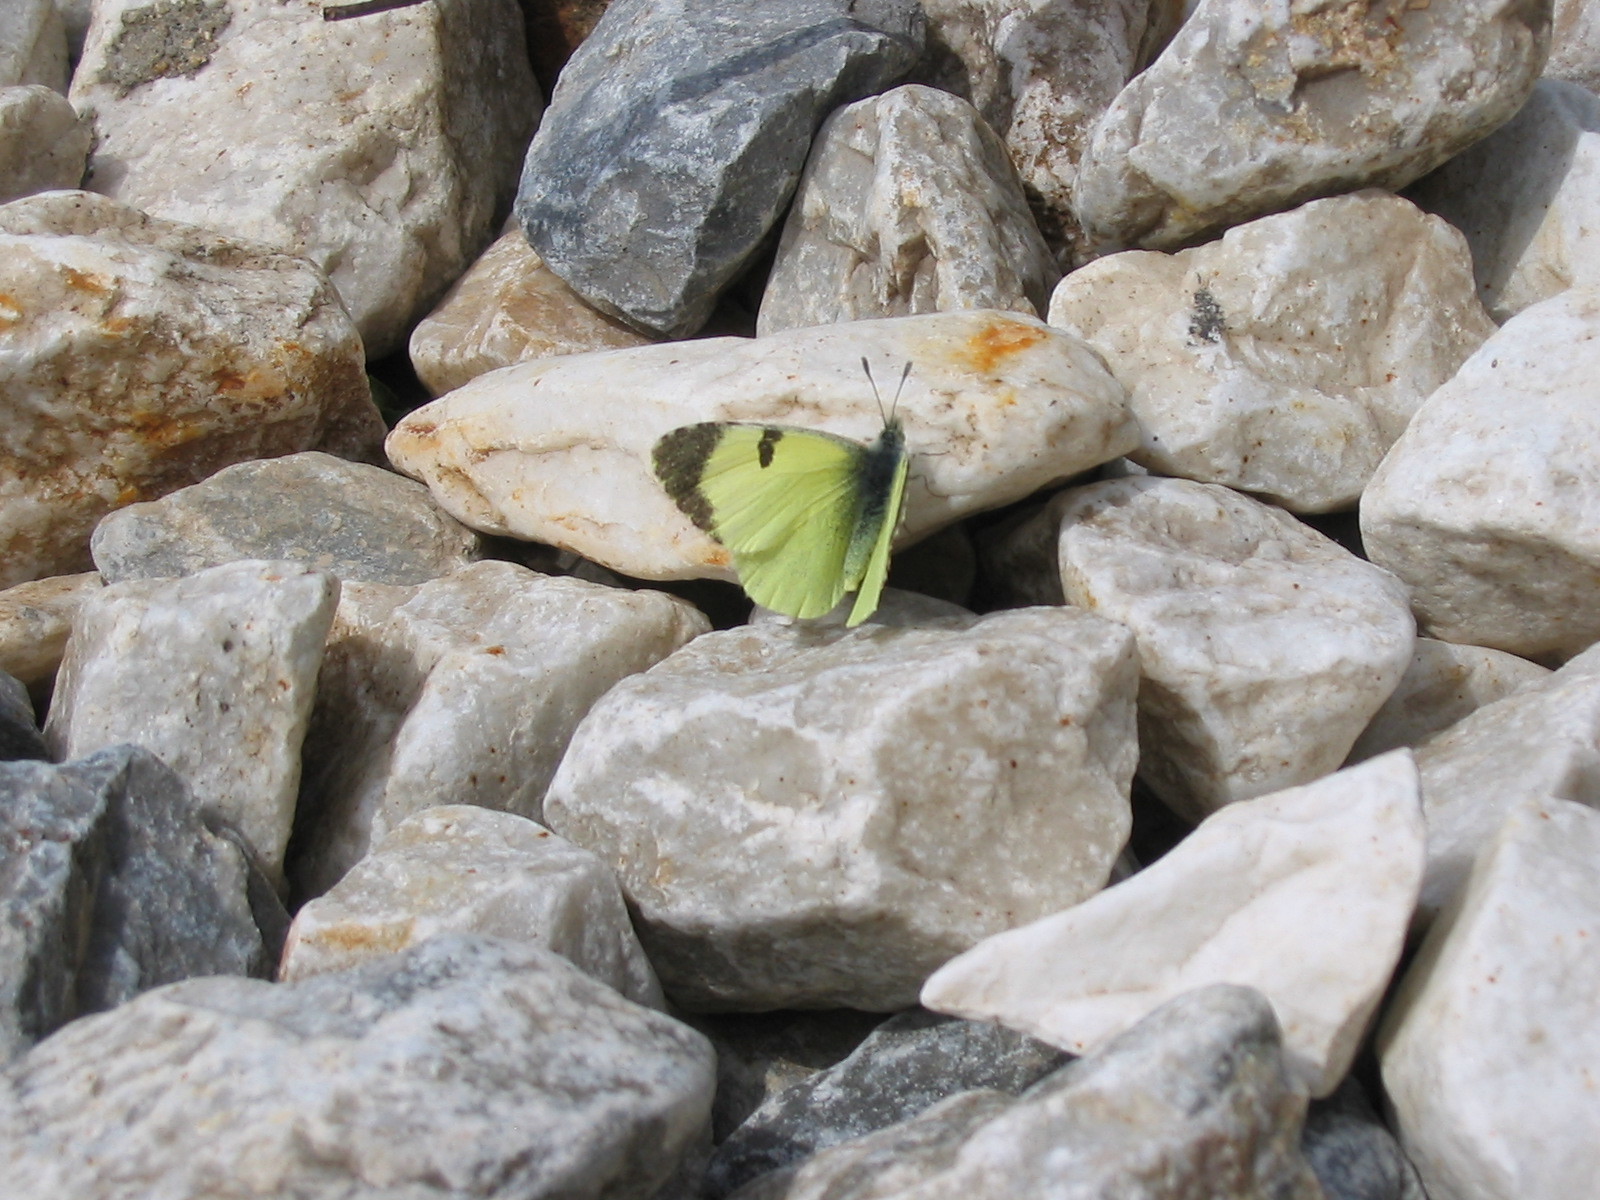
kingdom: Animalia
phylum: Arthropoda
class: Insecta
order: Lepidoptera
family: Pieridae
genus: Elphinstonia
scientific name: Elphinstonia penia
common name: Eastern greenish black-tip
